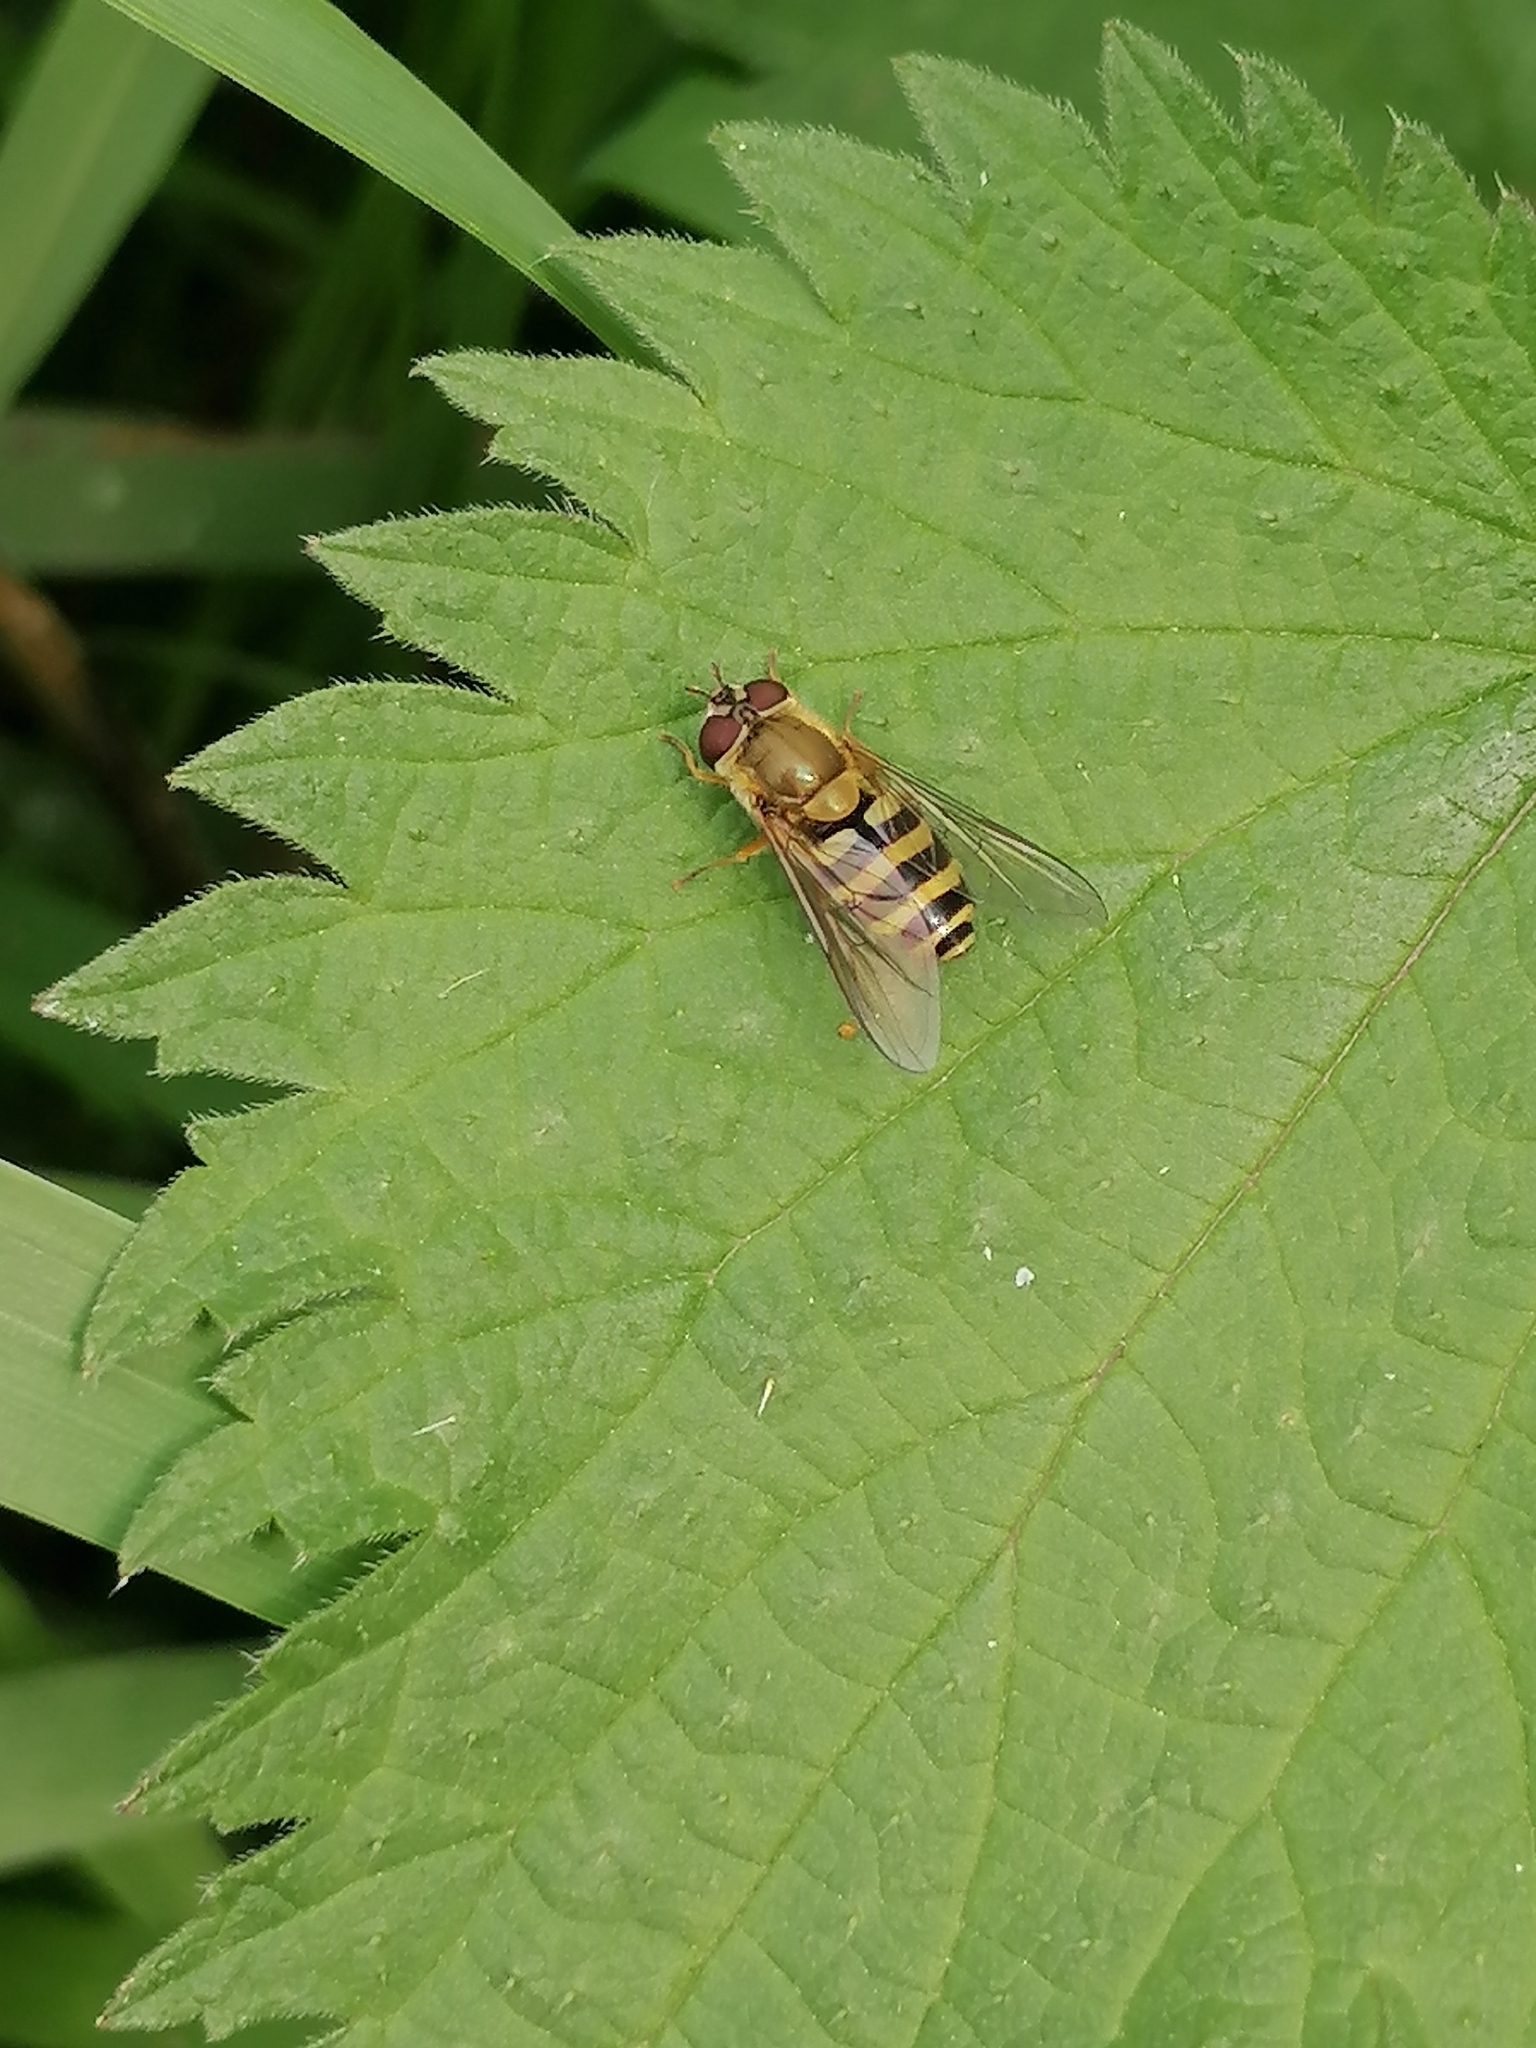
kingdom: Animalia
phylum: Arthropoda
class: Insecta
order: Diptera
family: Syrphidae
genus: Syrphus
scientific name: Syrphus
